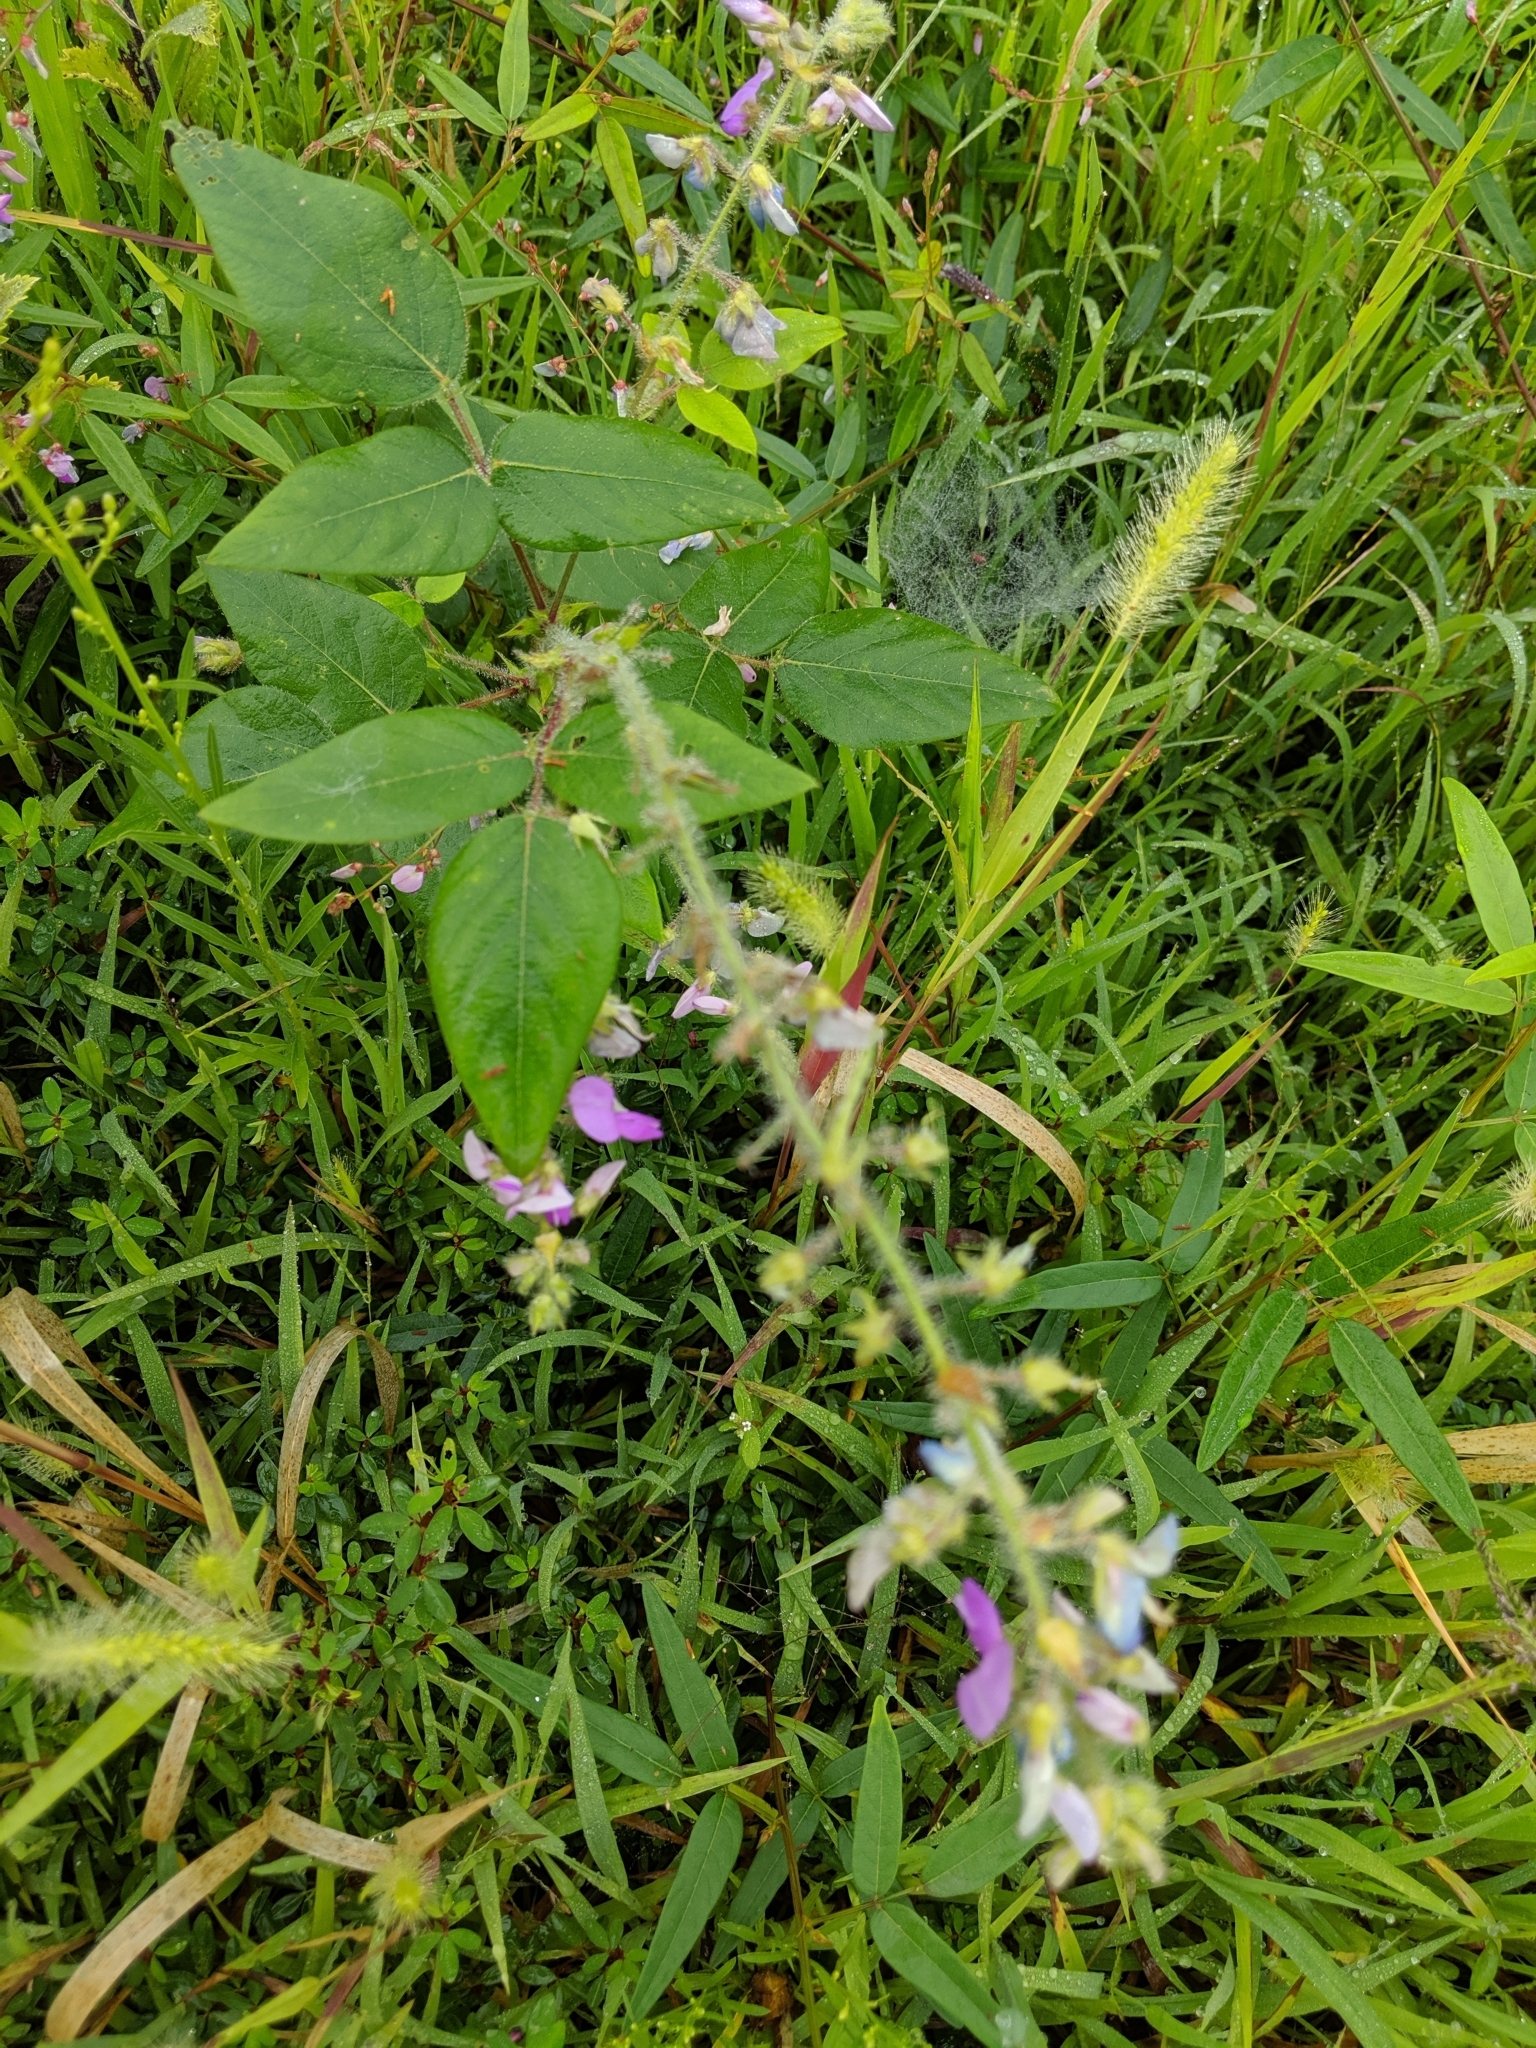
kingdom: Plantae
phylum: Tracheophyta
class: Magnoliopsida
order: Fabales
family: Fabaceae
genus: Desmodium
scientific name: Desmodium canescens
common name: Hoary tick-clover
